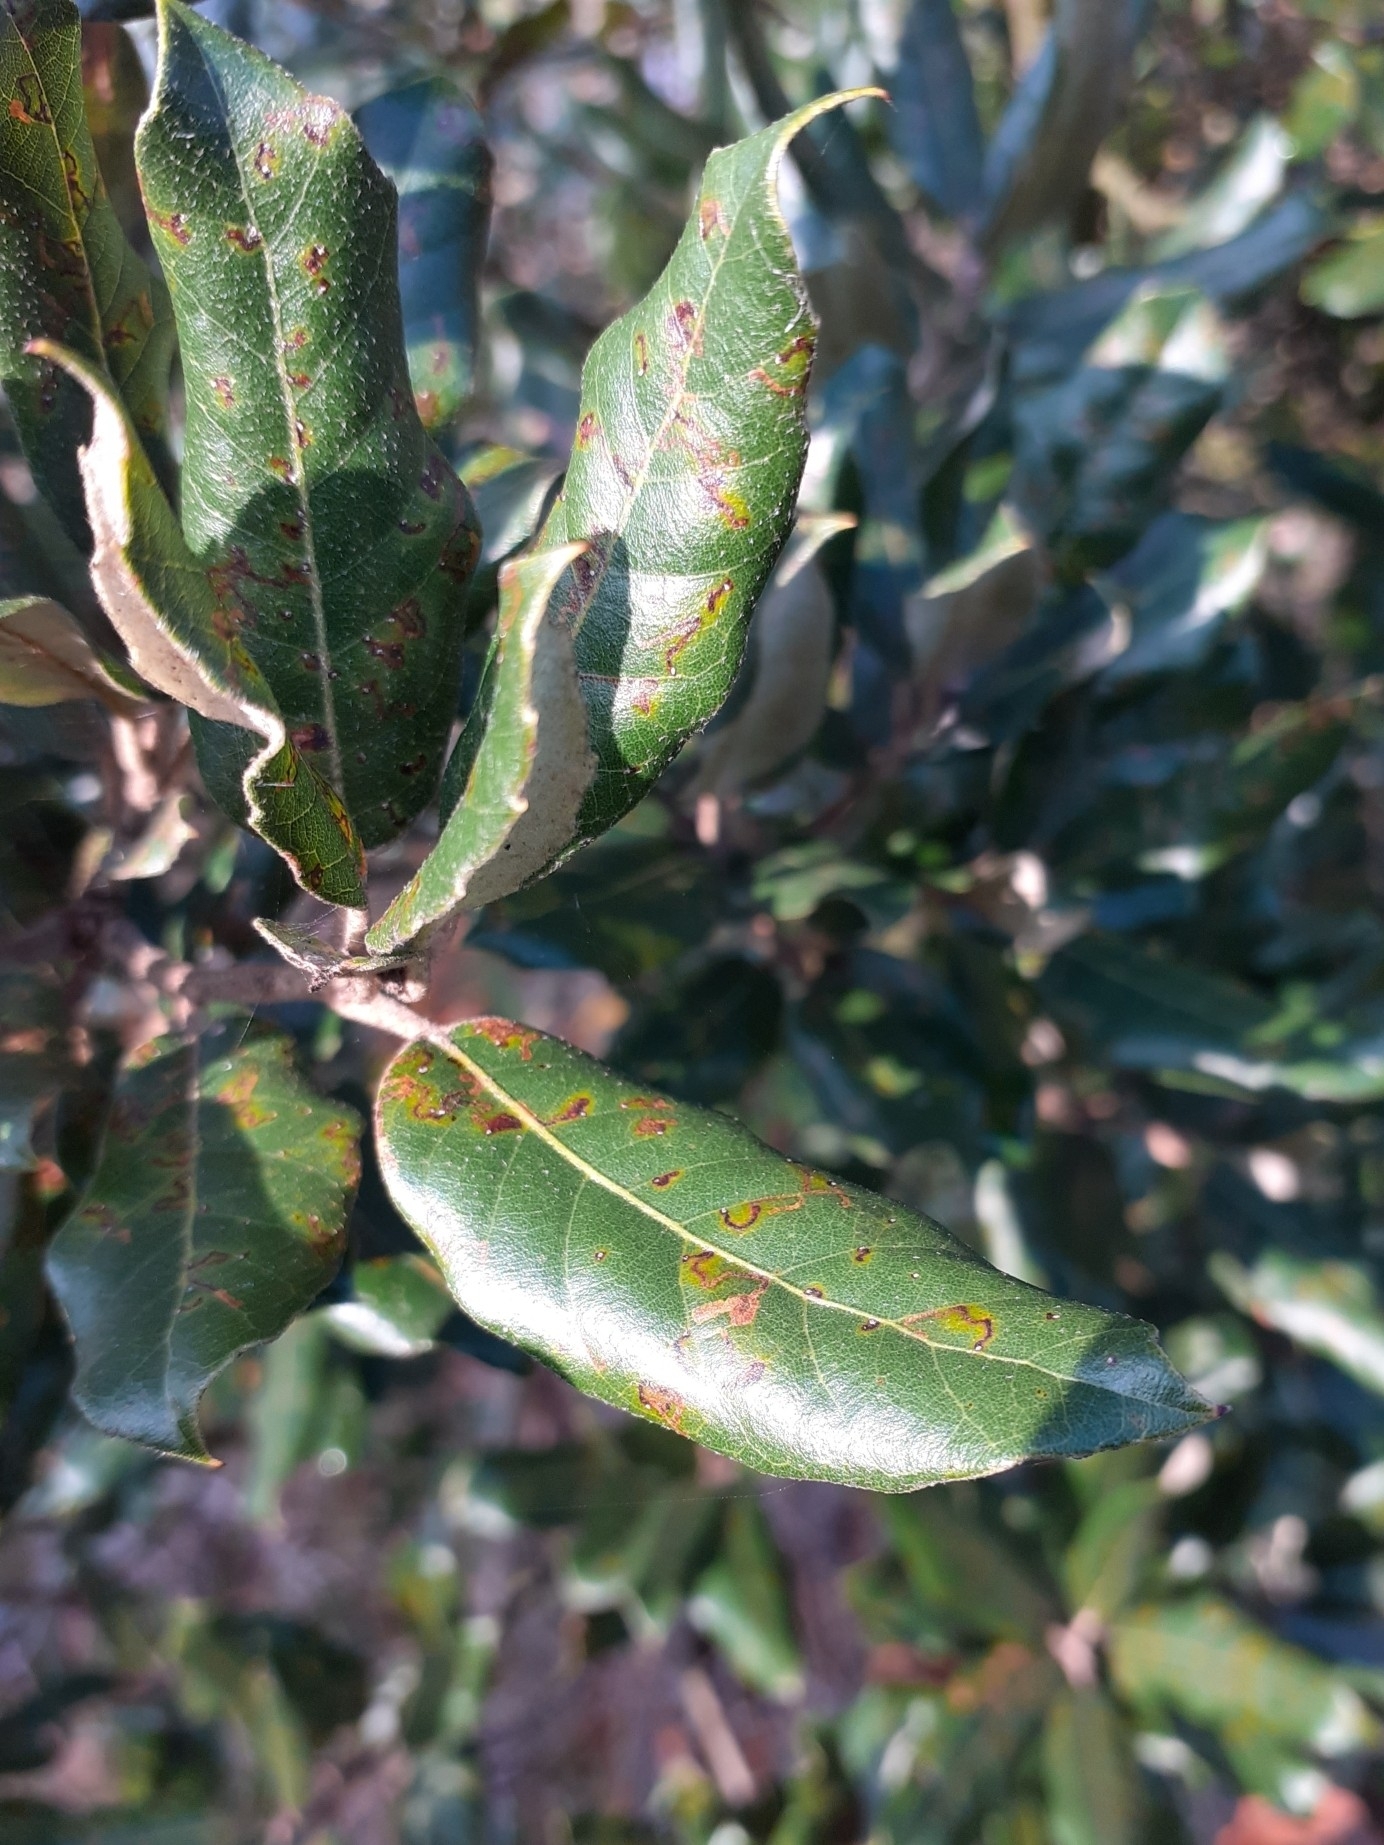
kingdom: Plantae
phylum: Tracheophyta
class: Magnoliopsida
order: Fagales
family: Fagaceae
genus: Quercus
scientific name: Quercus ilex
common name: Evergreen oak
